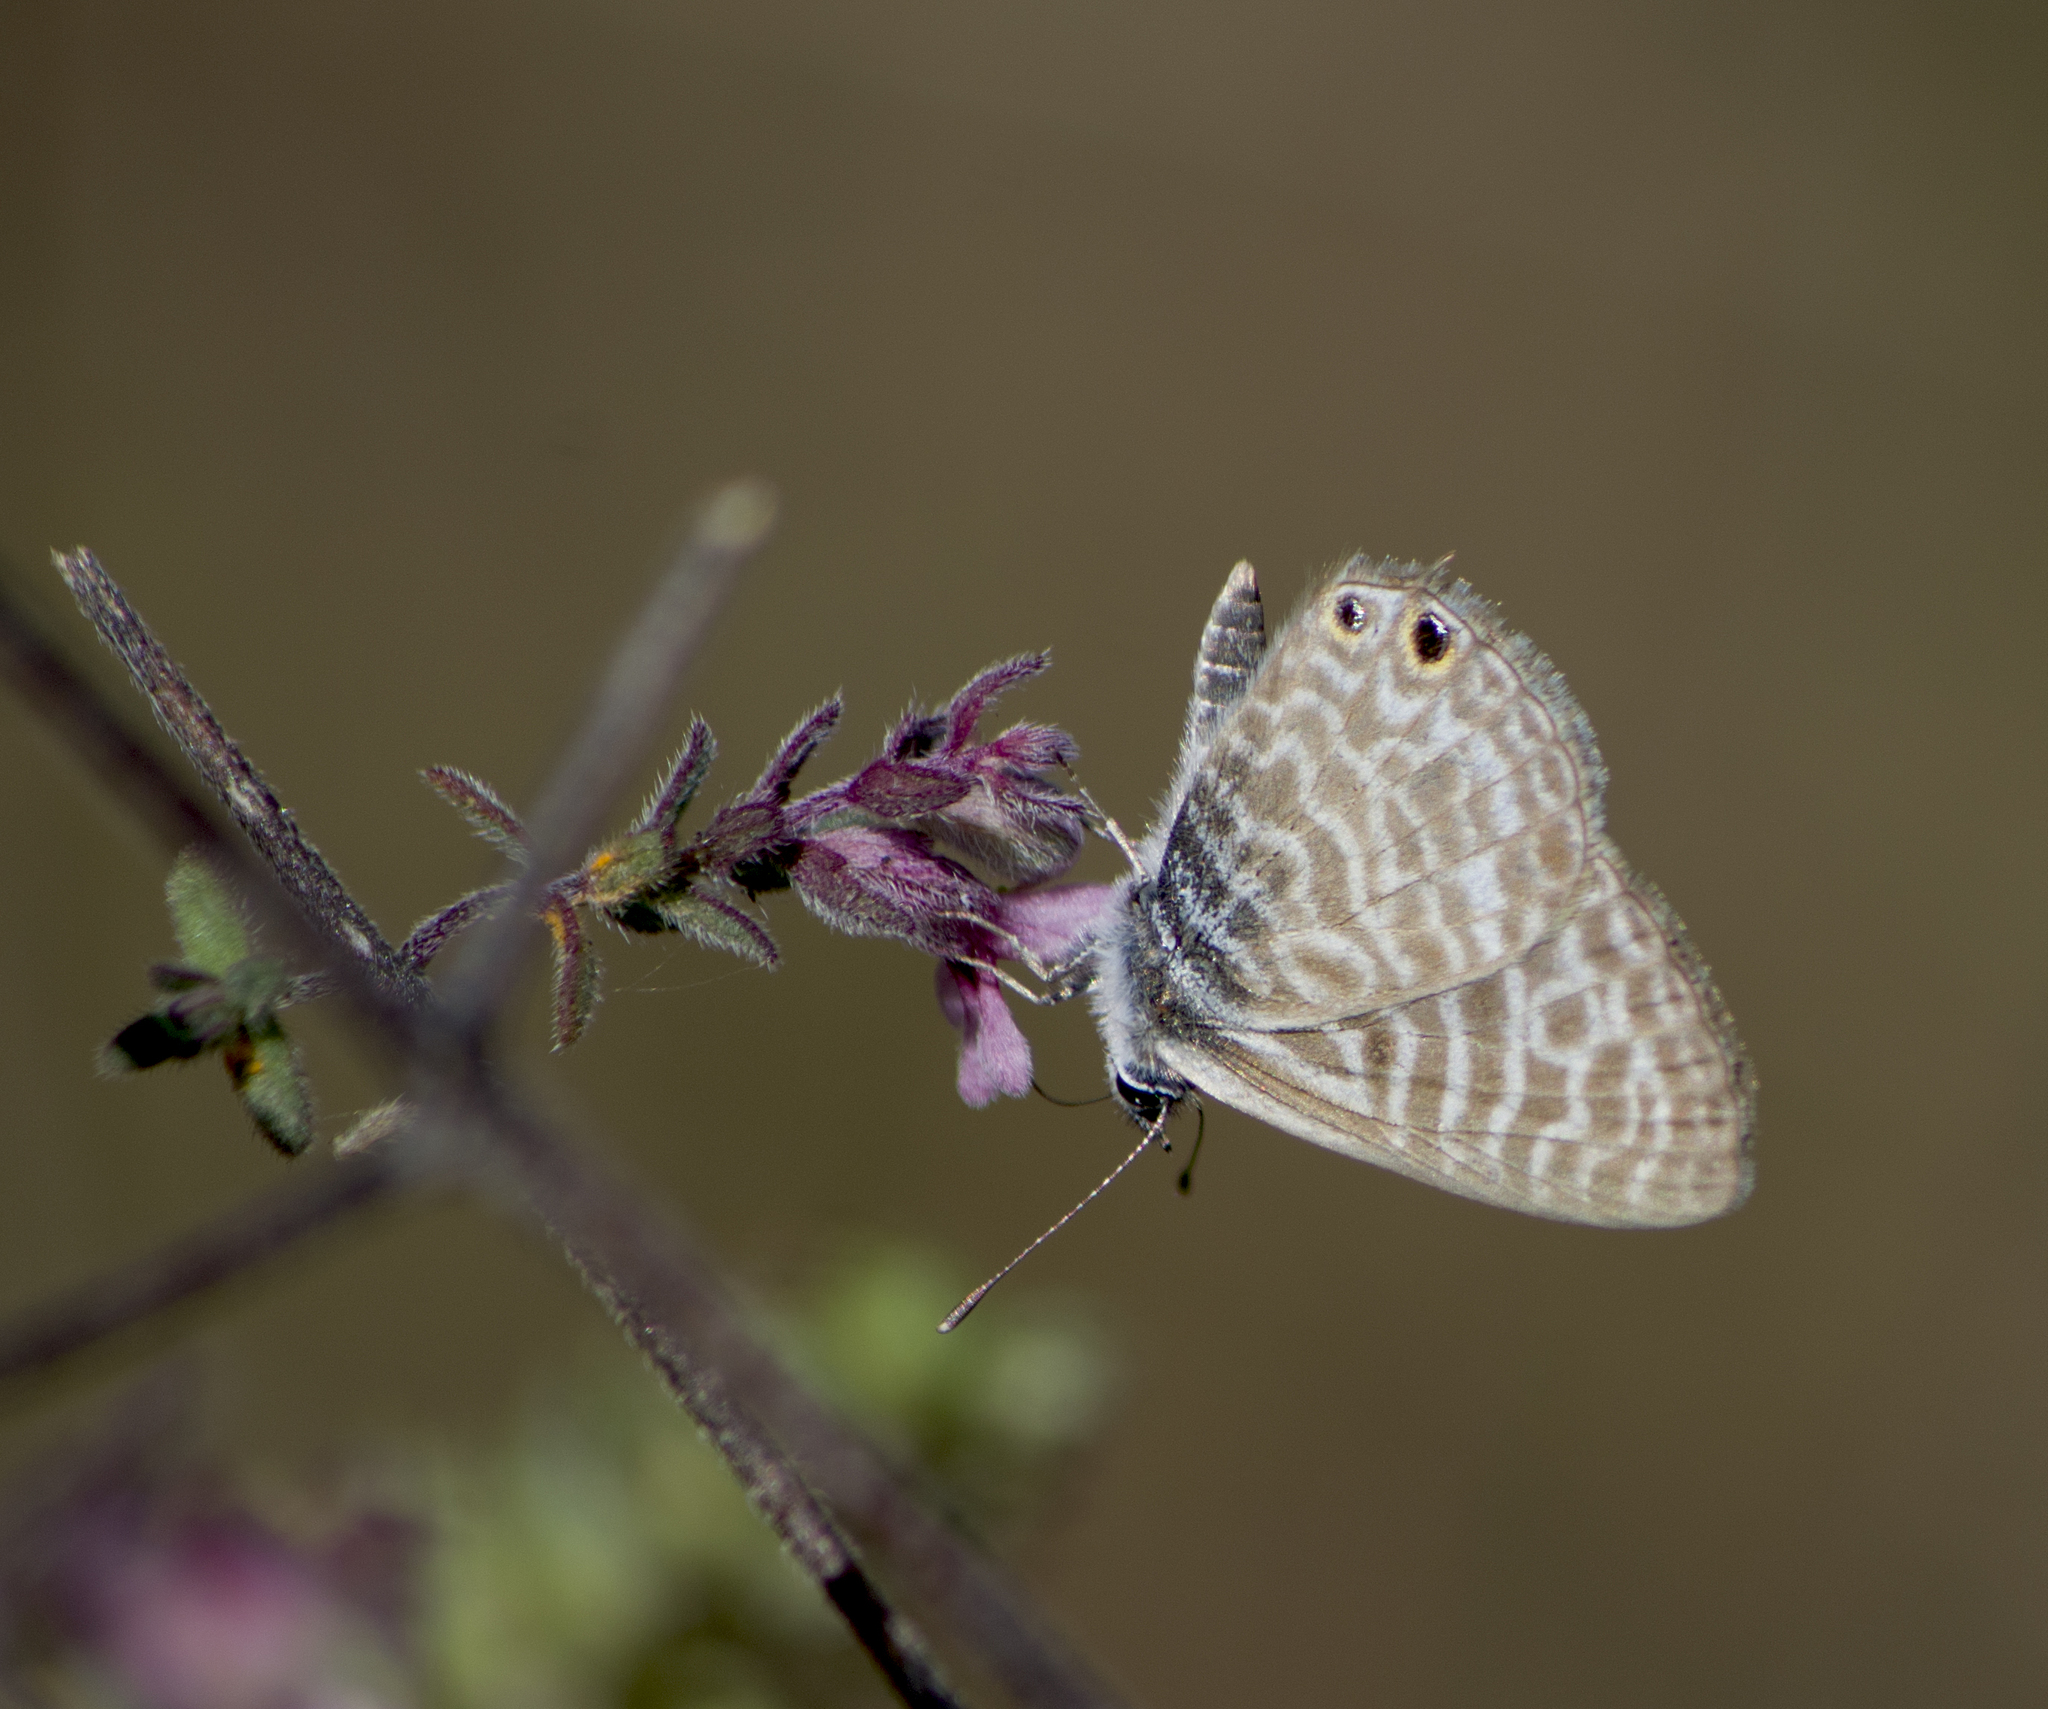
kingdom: Animalia
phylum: Arthropoda
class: Insecta
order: Lepidoptera
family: Lycaenidae
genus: Leptotes
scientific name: Leptotes pirithous
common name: Lang's short-tailed blue
